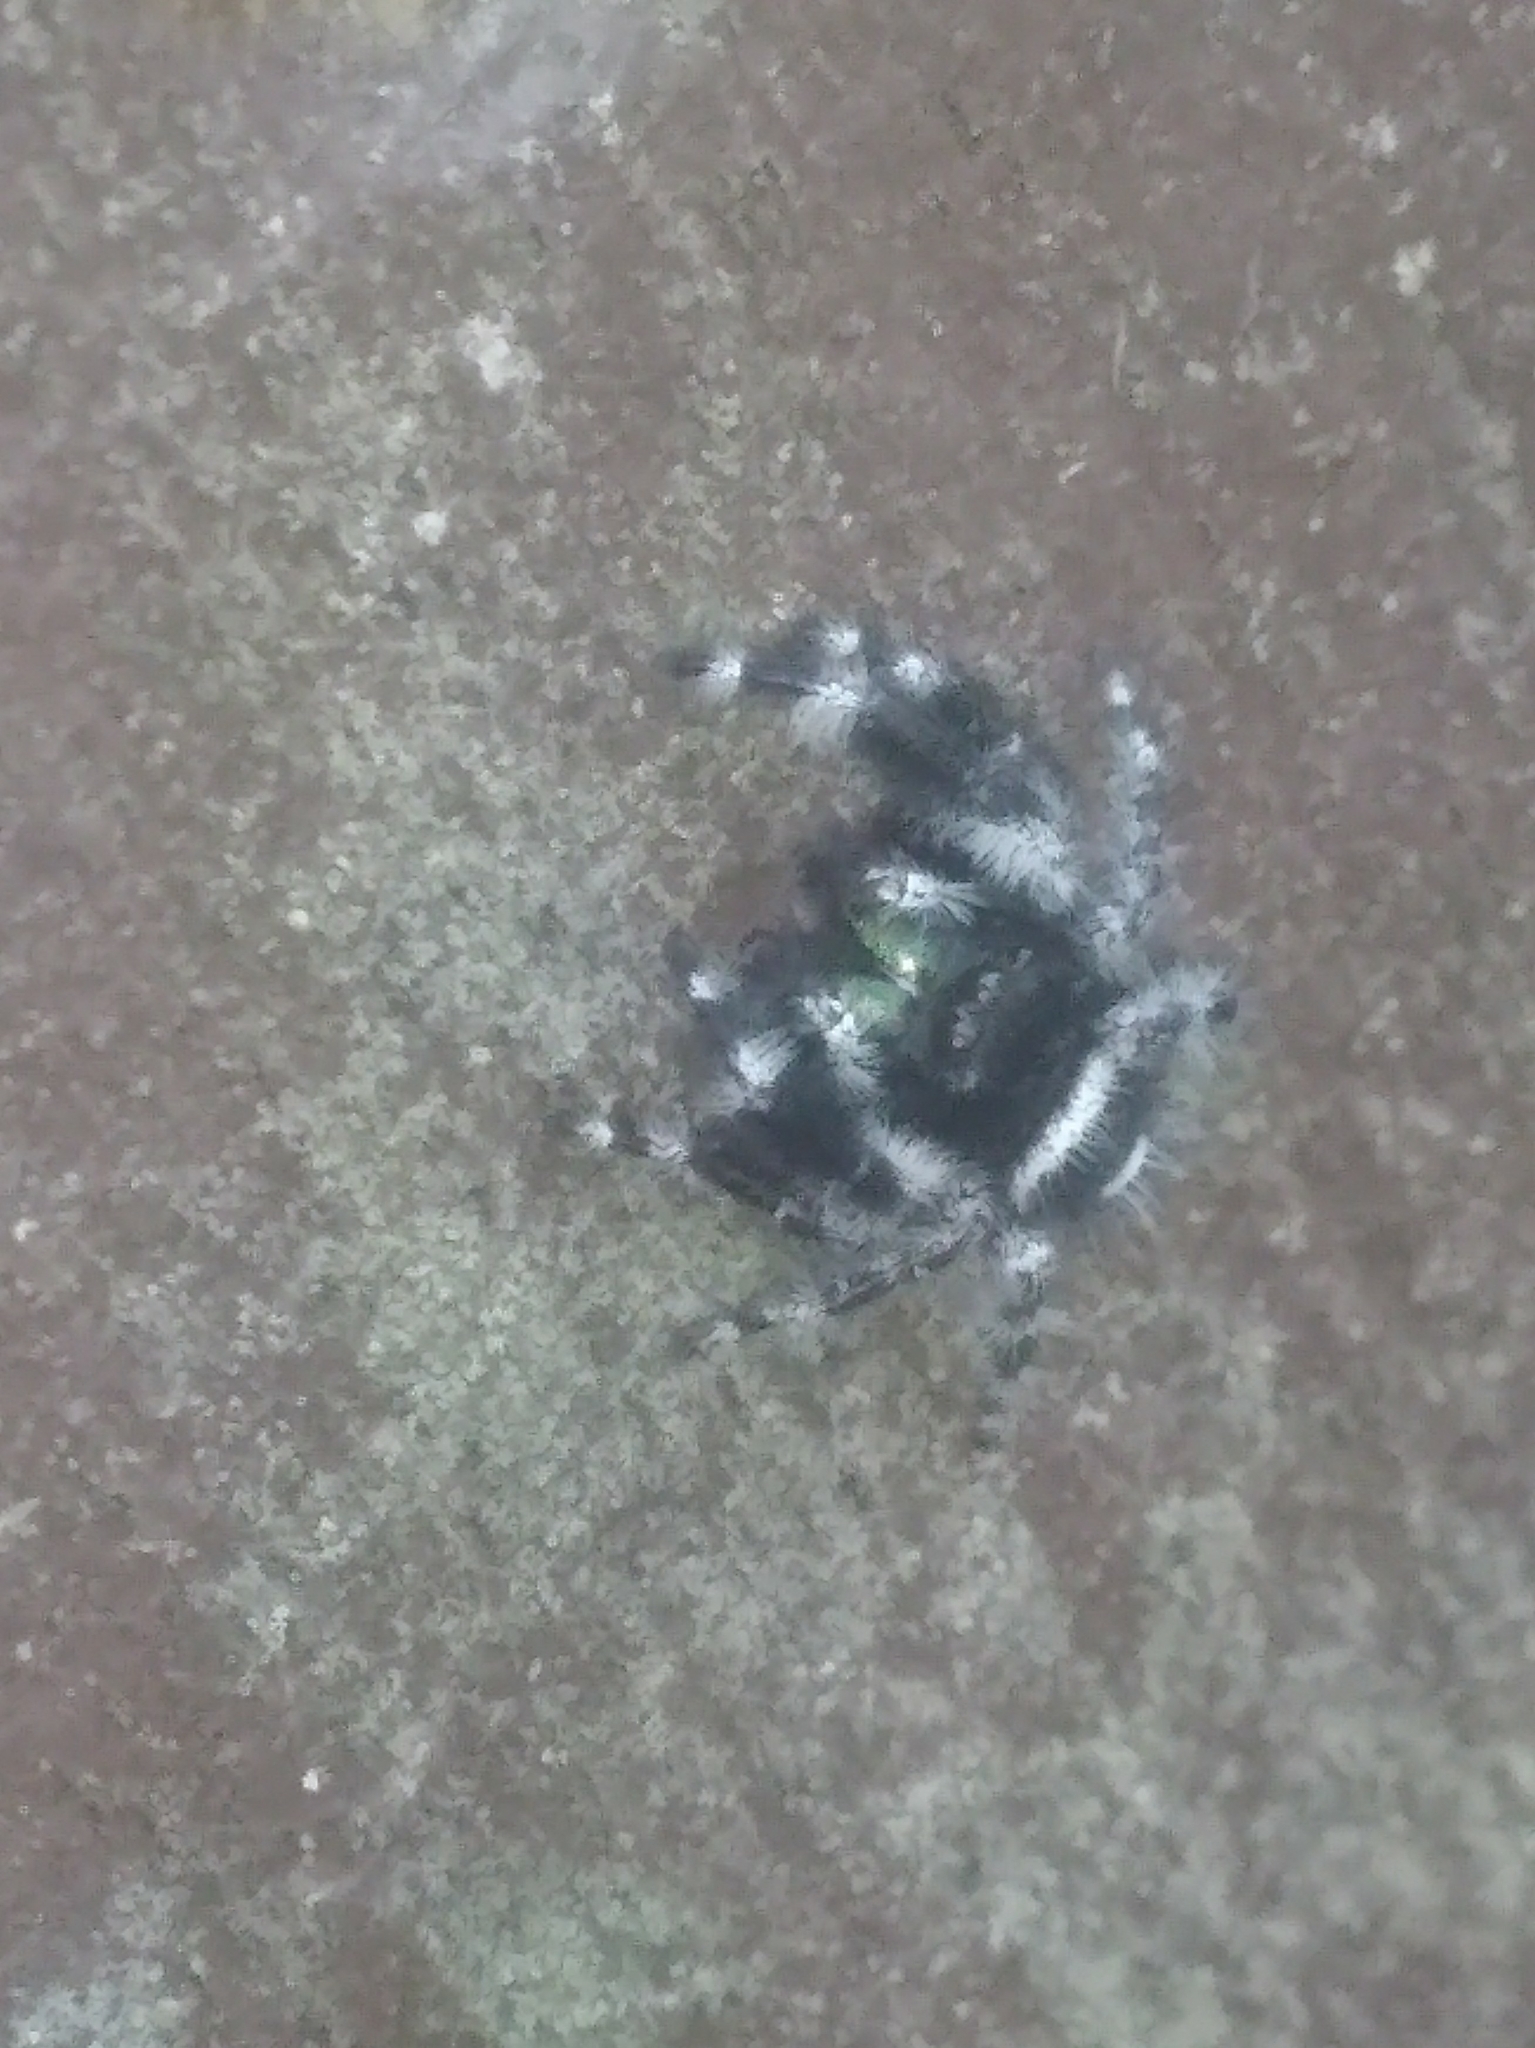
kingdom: Animalia
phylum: Arthropoda
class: Arachnida
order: Araneae
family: Salticidae
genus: Phidippus
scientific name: Phidippus audax
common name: Bold jumper
